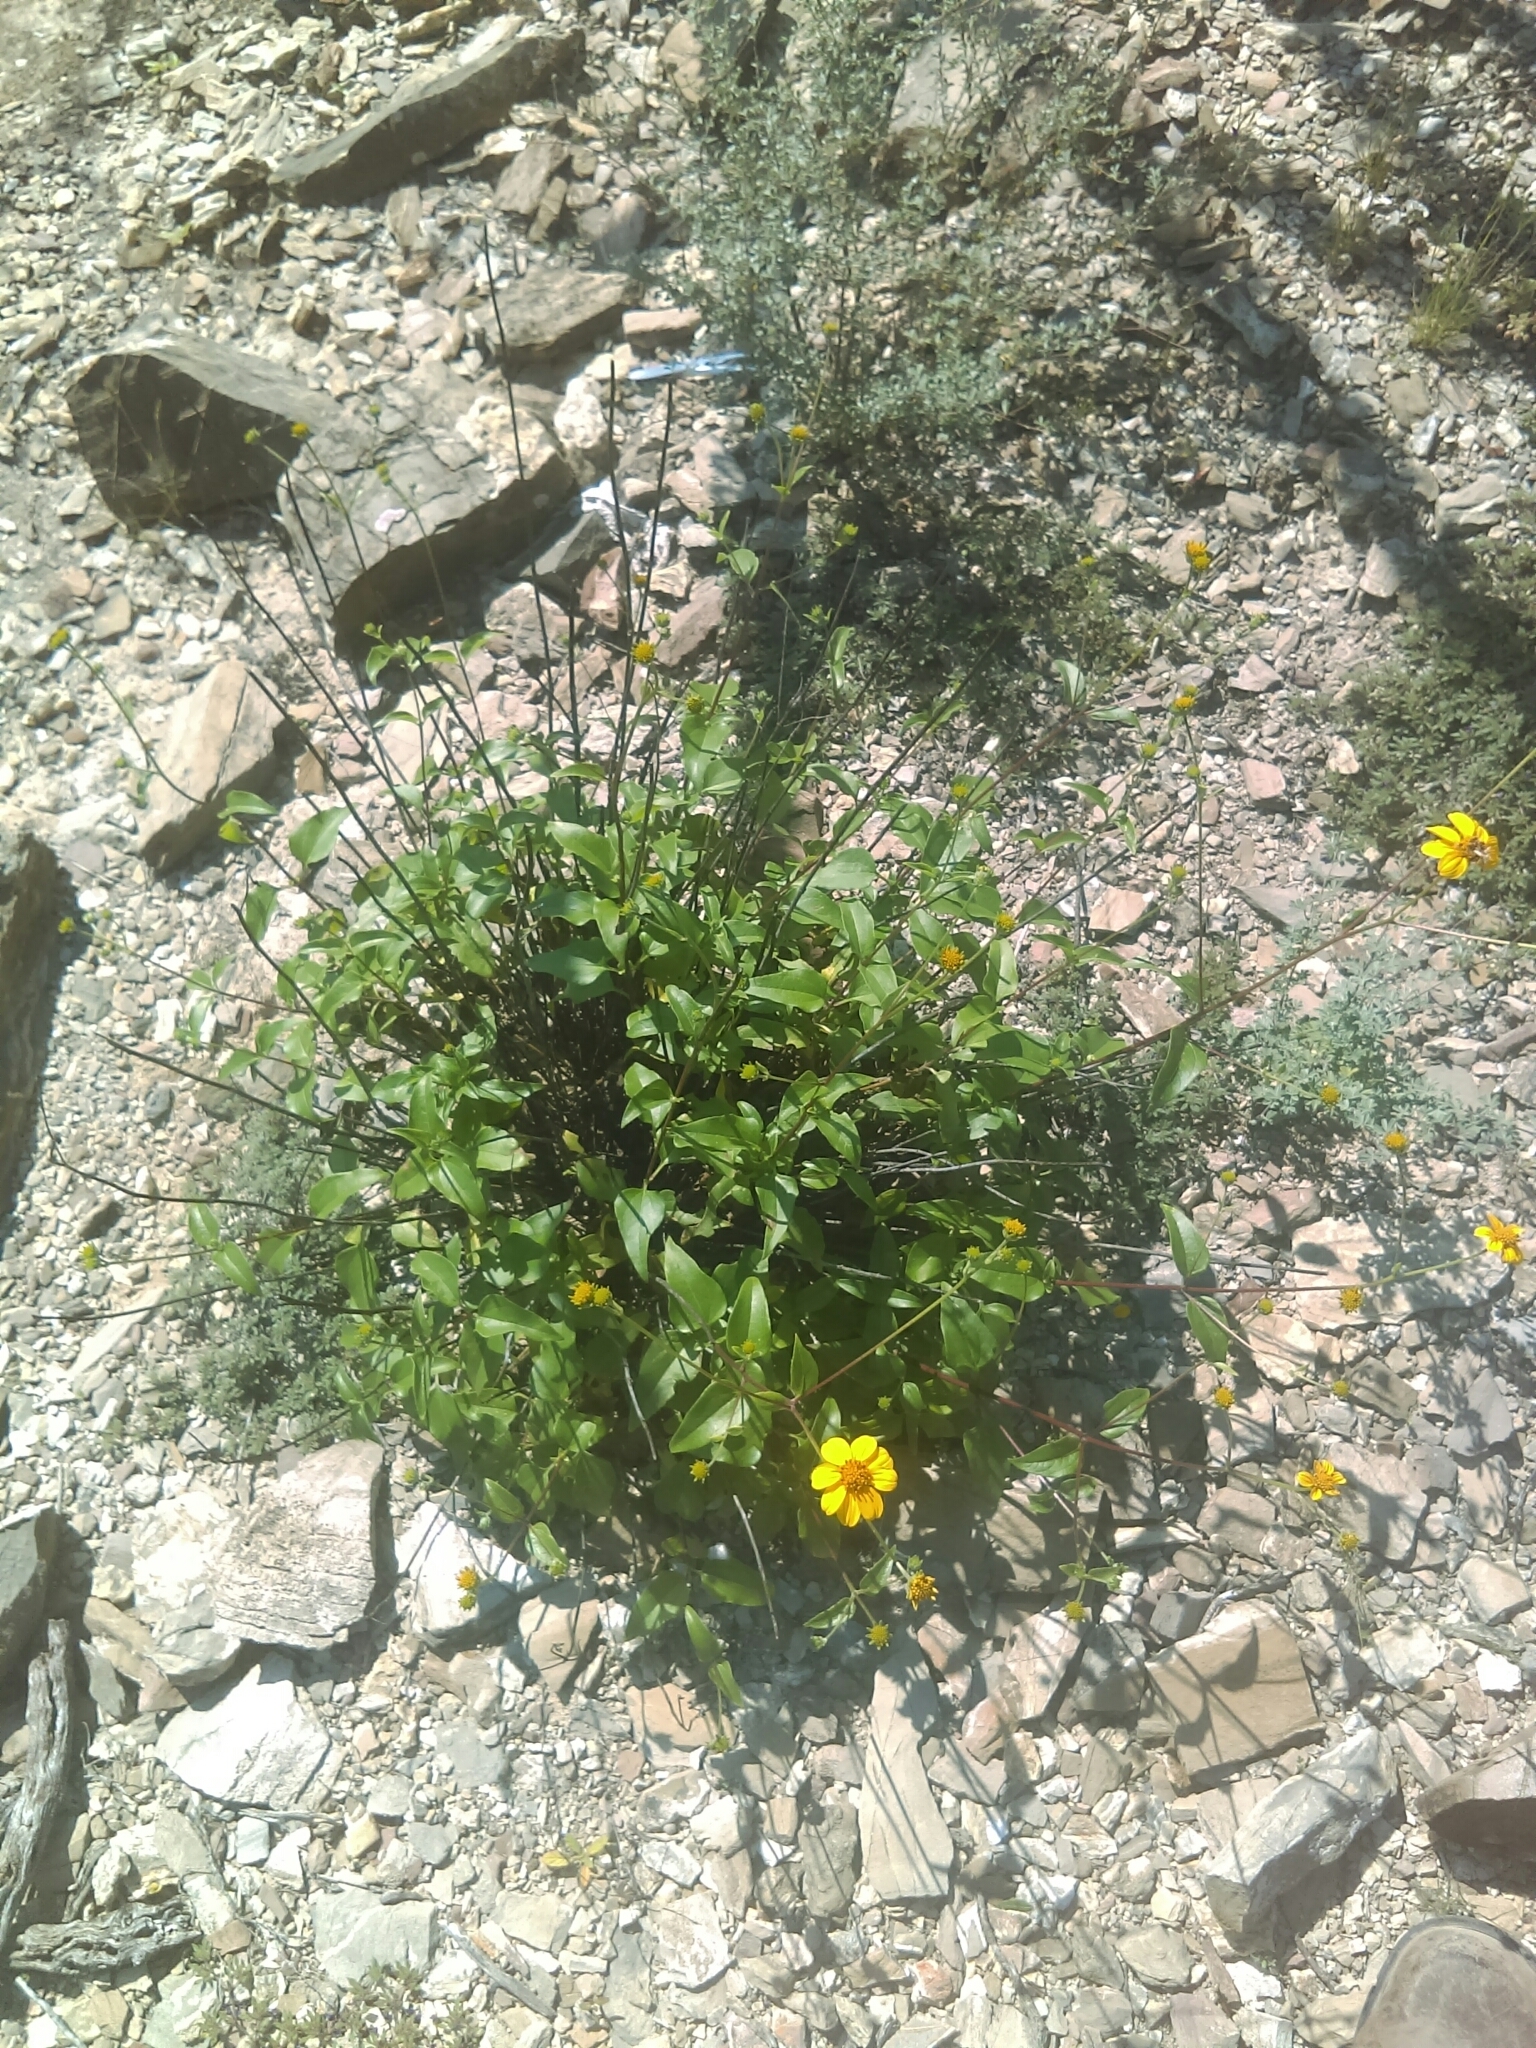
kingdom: Plantae
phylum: Tracheophyta
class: Magnoliopsida
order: Asterales
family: Asteraceae
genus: Viguiera
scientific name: Viguiera dentata
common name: Toothleaf
